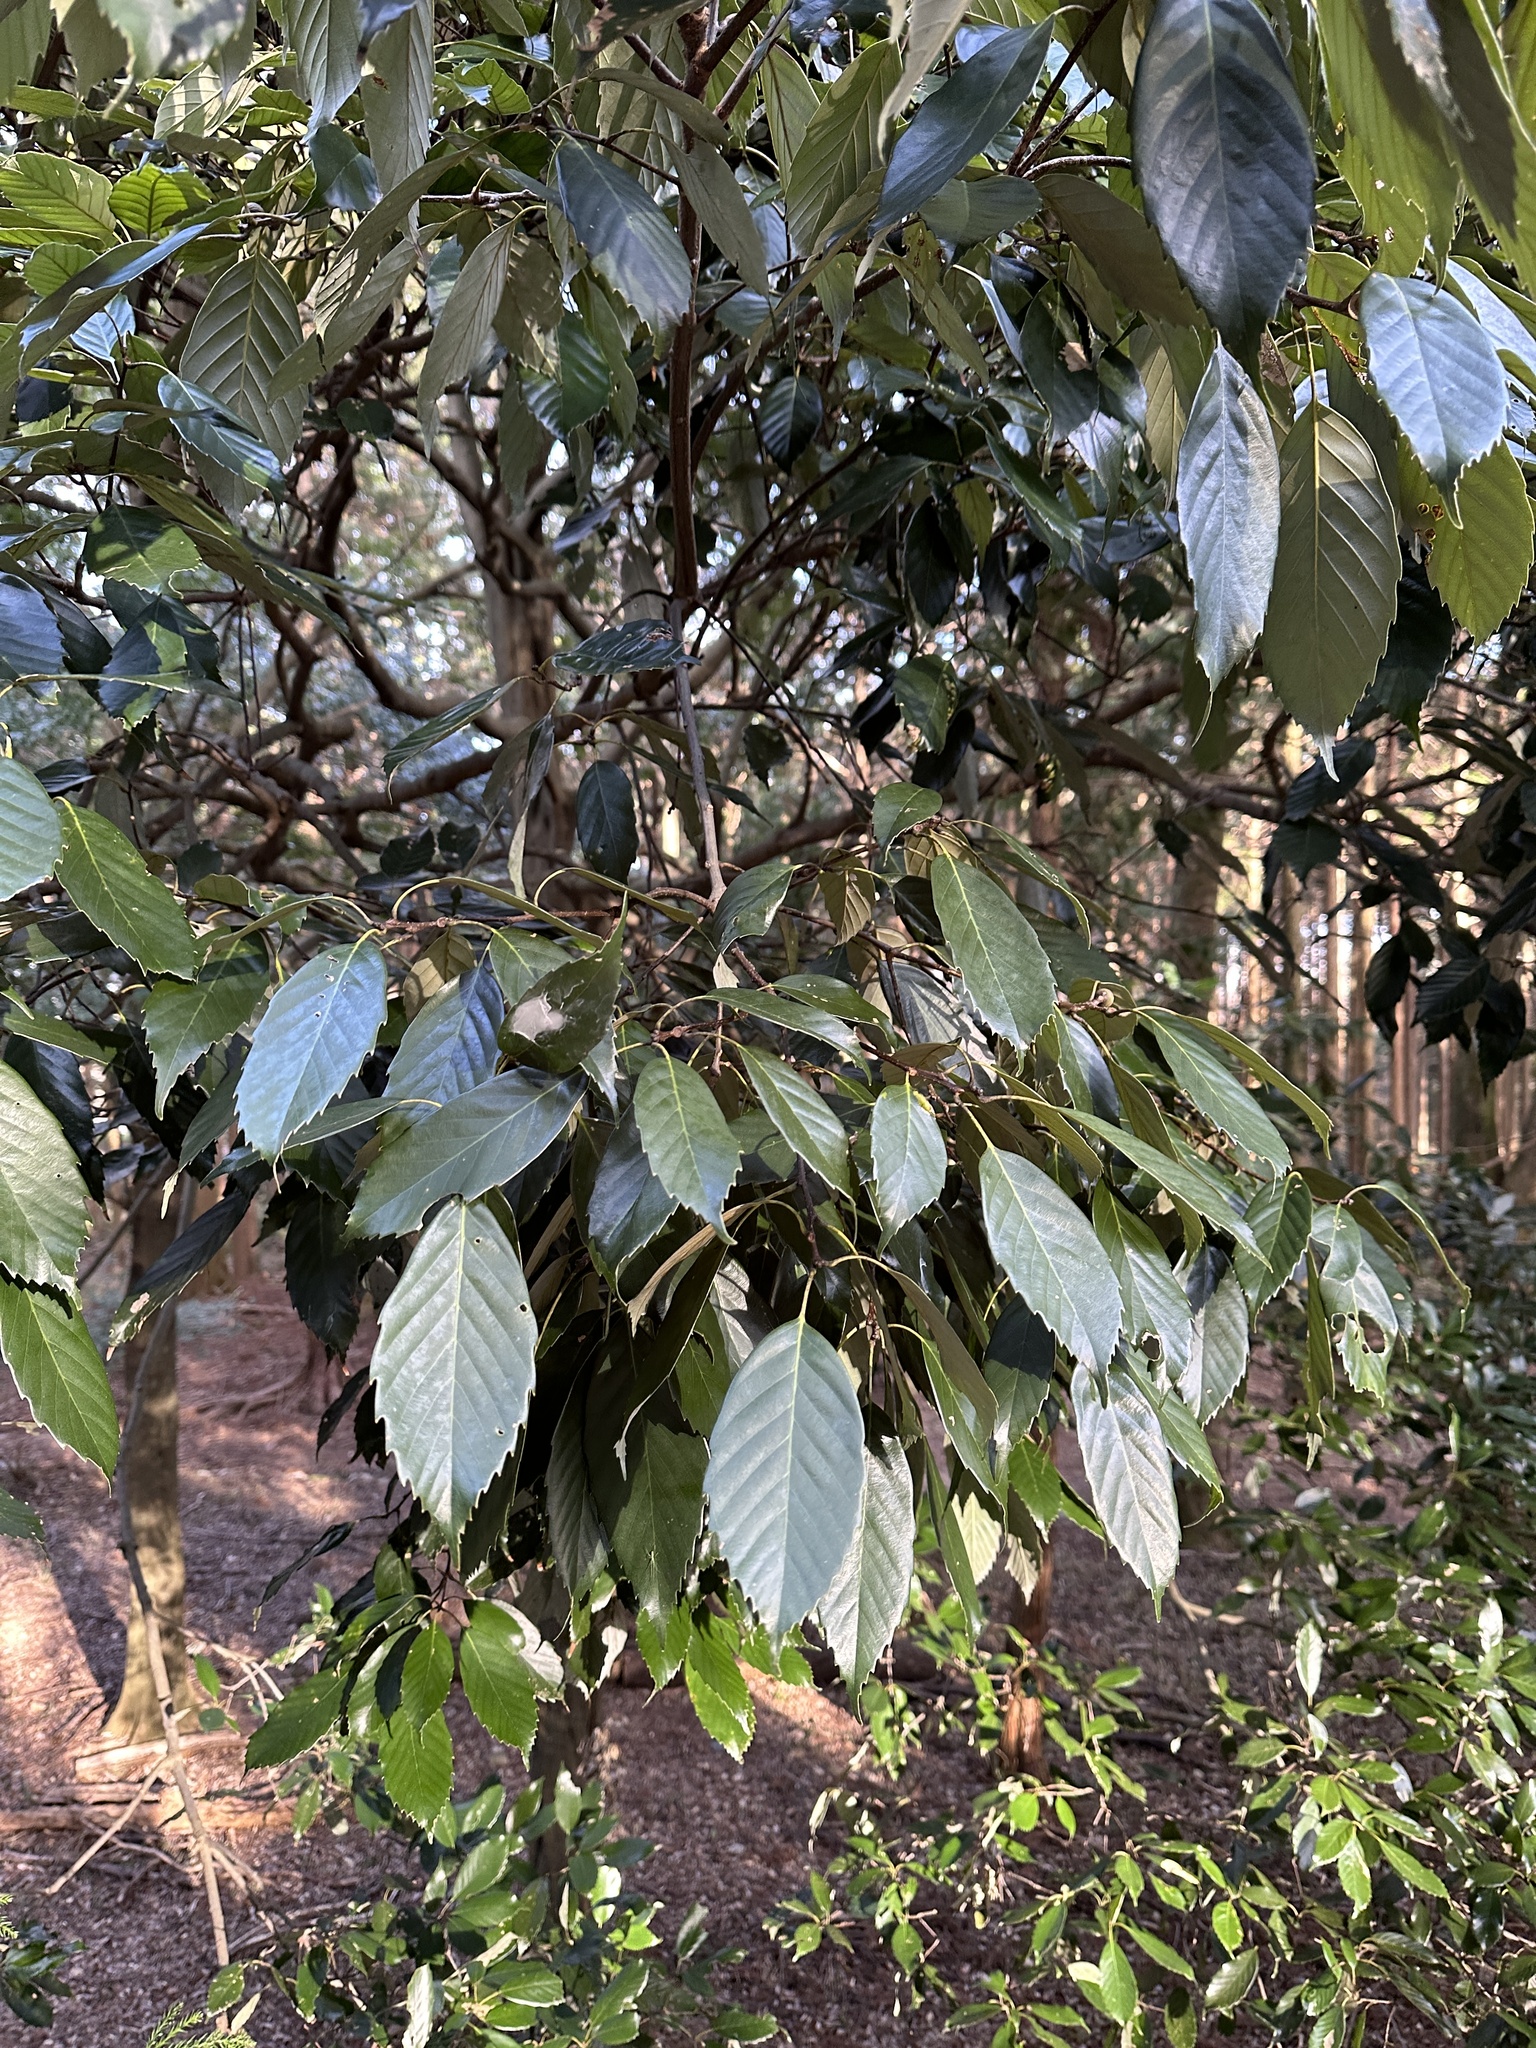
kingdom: Plantae
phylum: Tracheophyta
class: Magnoliopsida
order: Fagales
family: Fagaceae
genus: Quercus
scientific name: Quercus glauca
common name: Ring-cup oak
